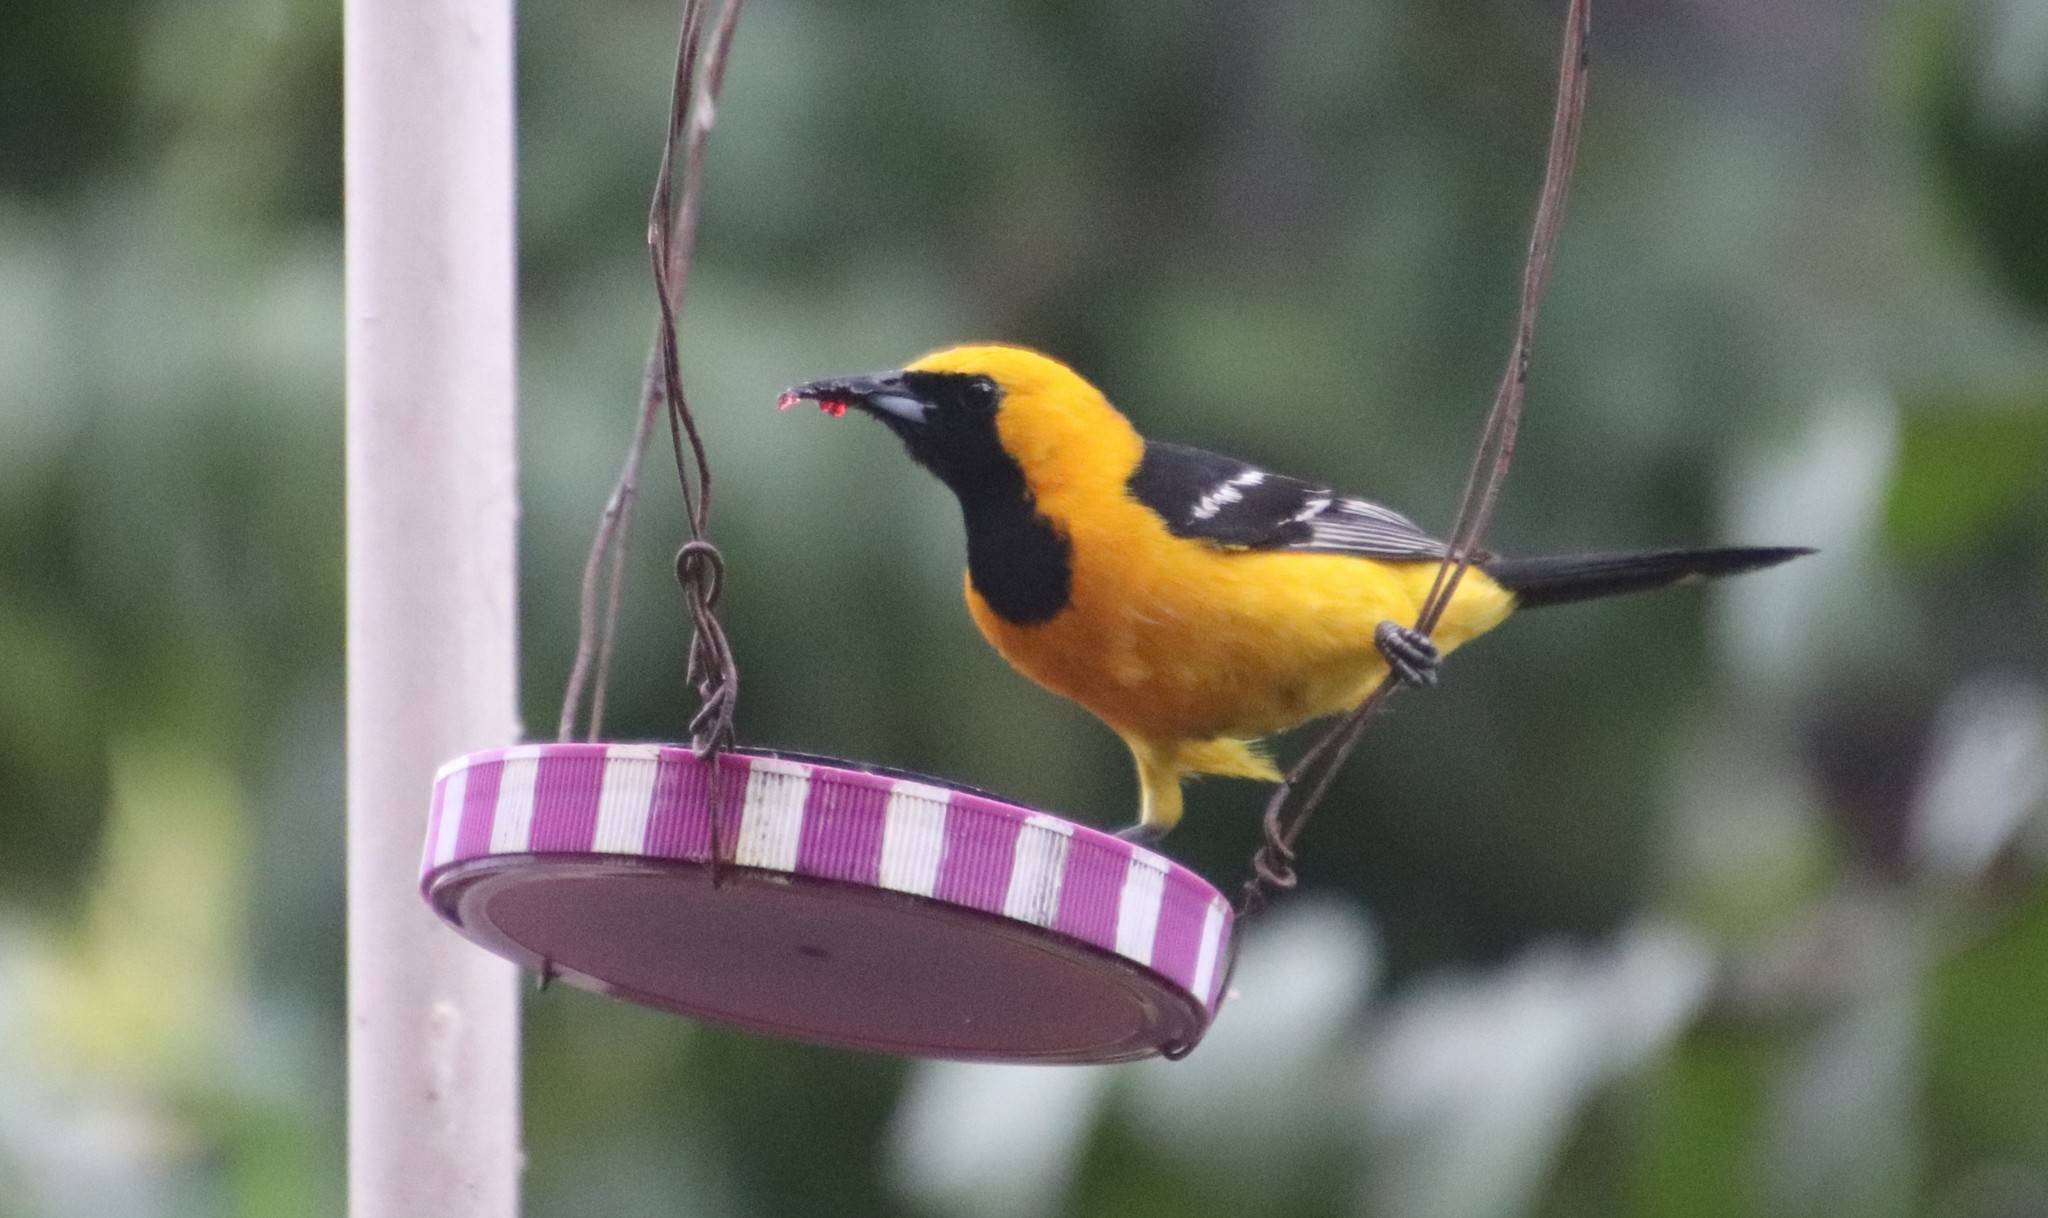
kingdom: Animalia
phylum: Chordata
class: Aves
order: Passeriformes
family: Icteridae
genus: Icterus
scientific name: Icterus cucullatus
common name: Hooded oriole
